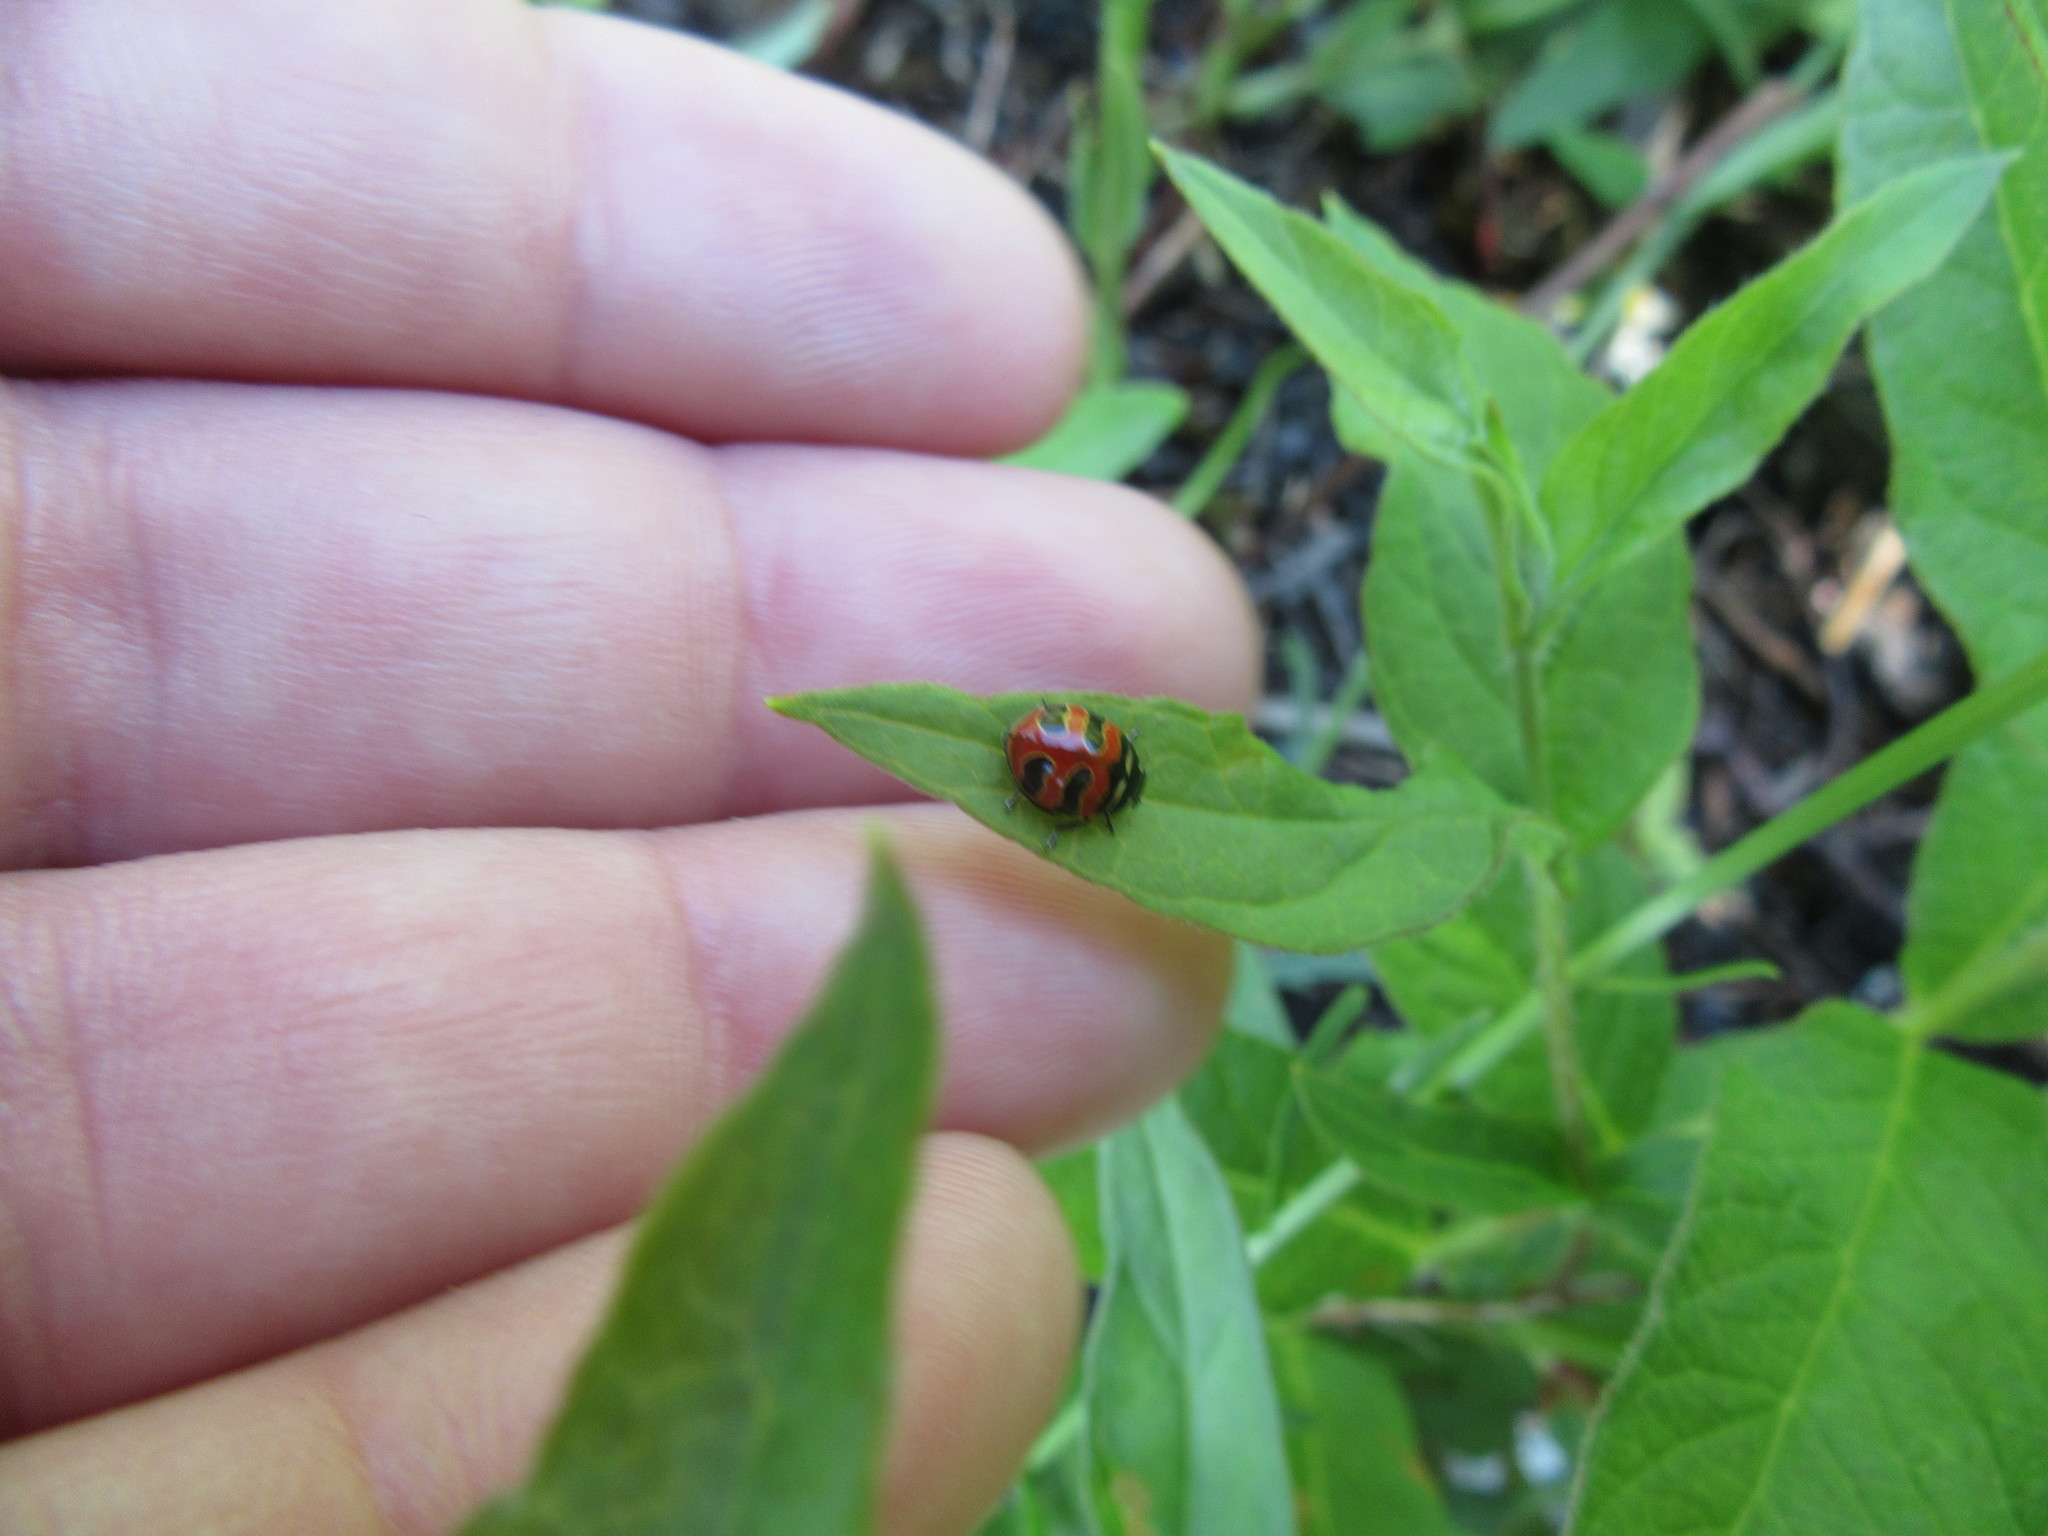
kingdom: Animalia
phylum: Arthropoda
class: Insecta
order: Coleoptera
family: Coccinellidae
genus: Coccinella
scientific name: Coccinella trifasciata
